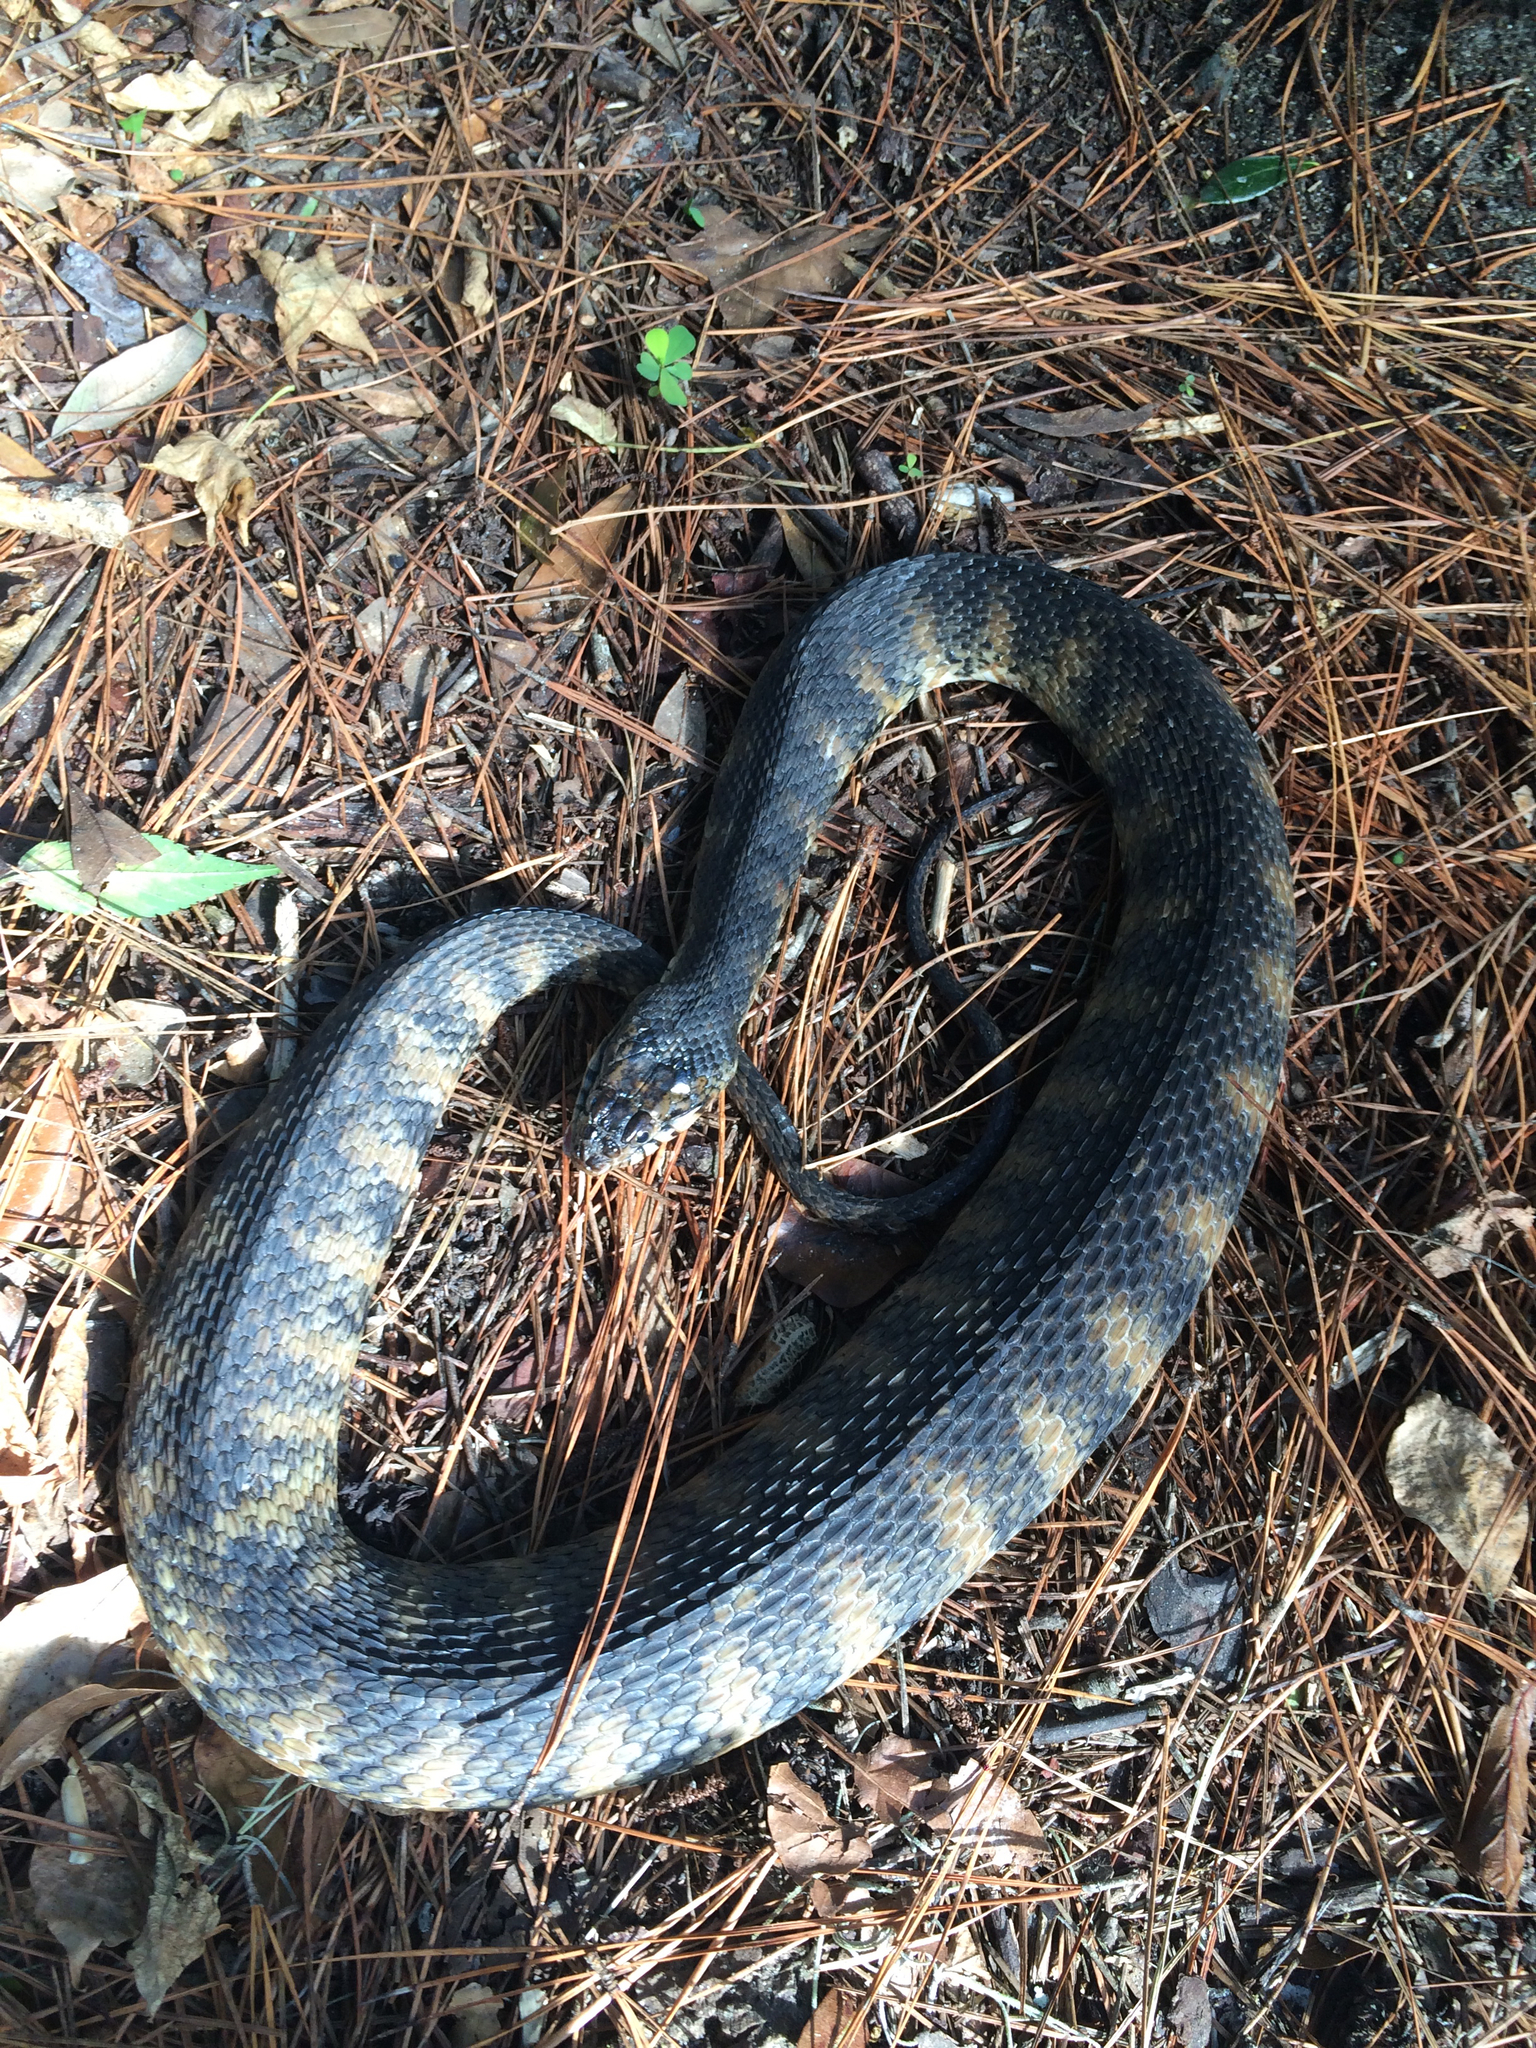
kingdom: Animalia
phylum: Chordata
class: Squamata
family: Colubridae
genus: Nerodia
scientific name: Nerodia fasciata
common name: Southern water snake
